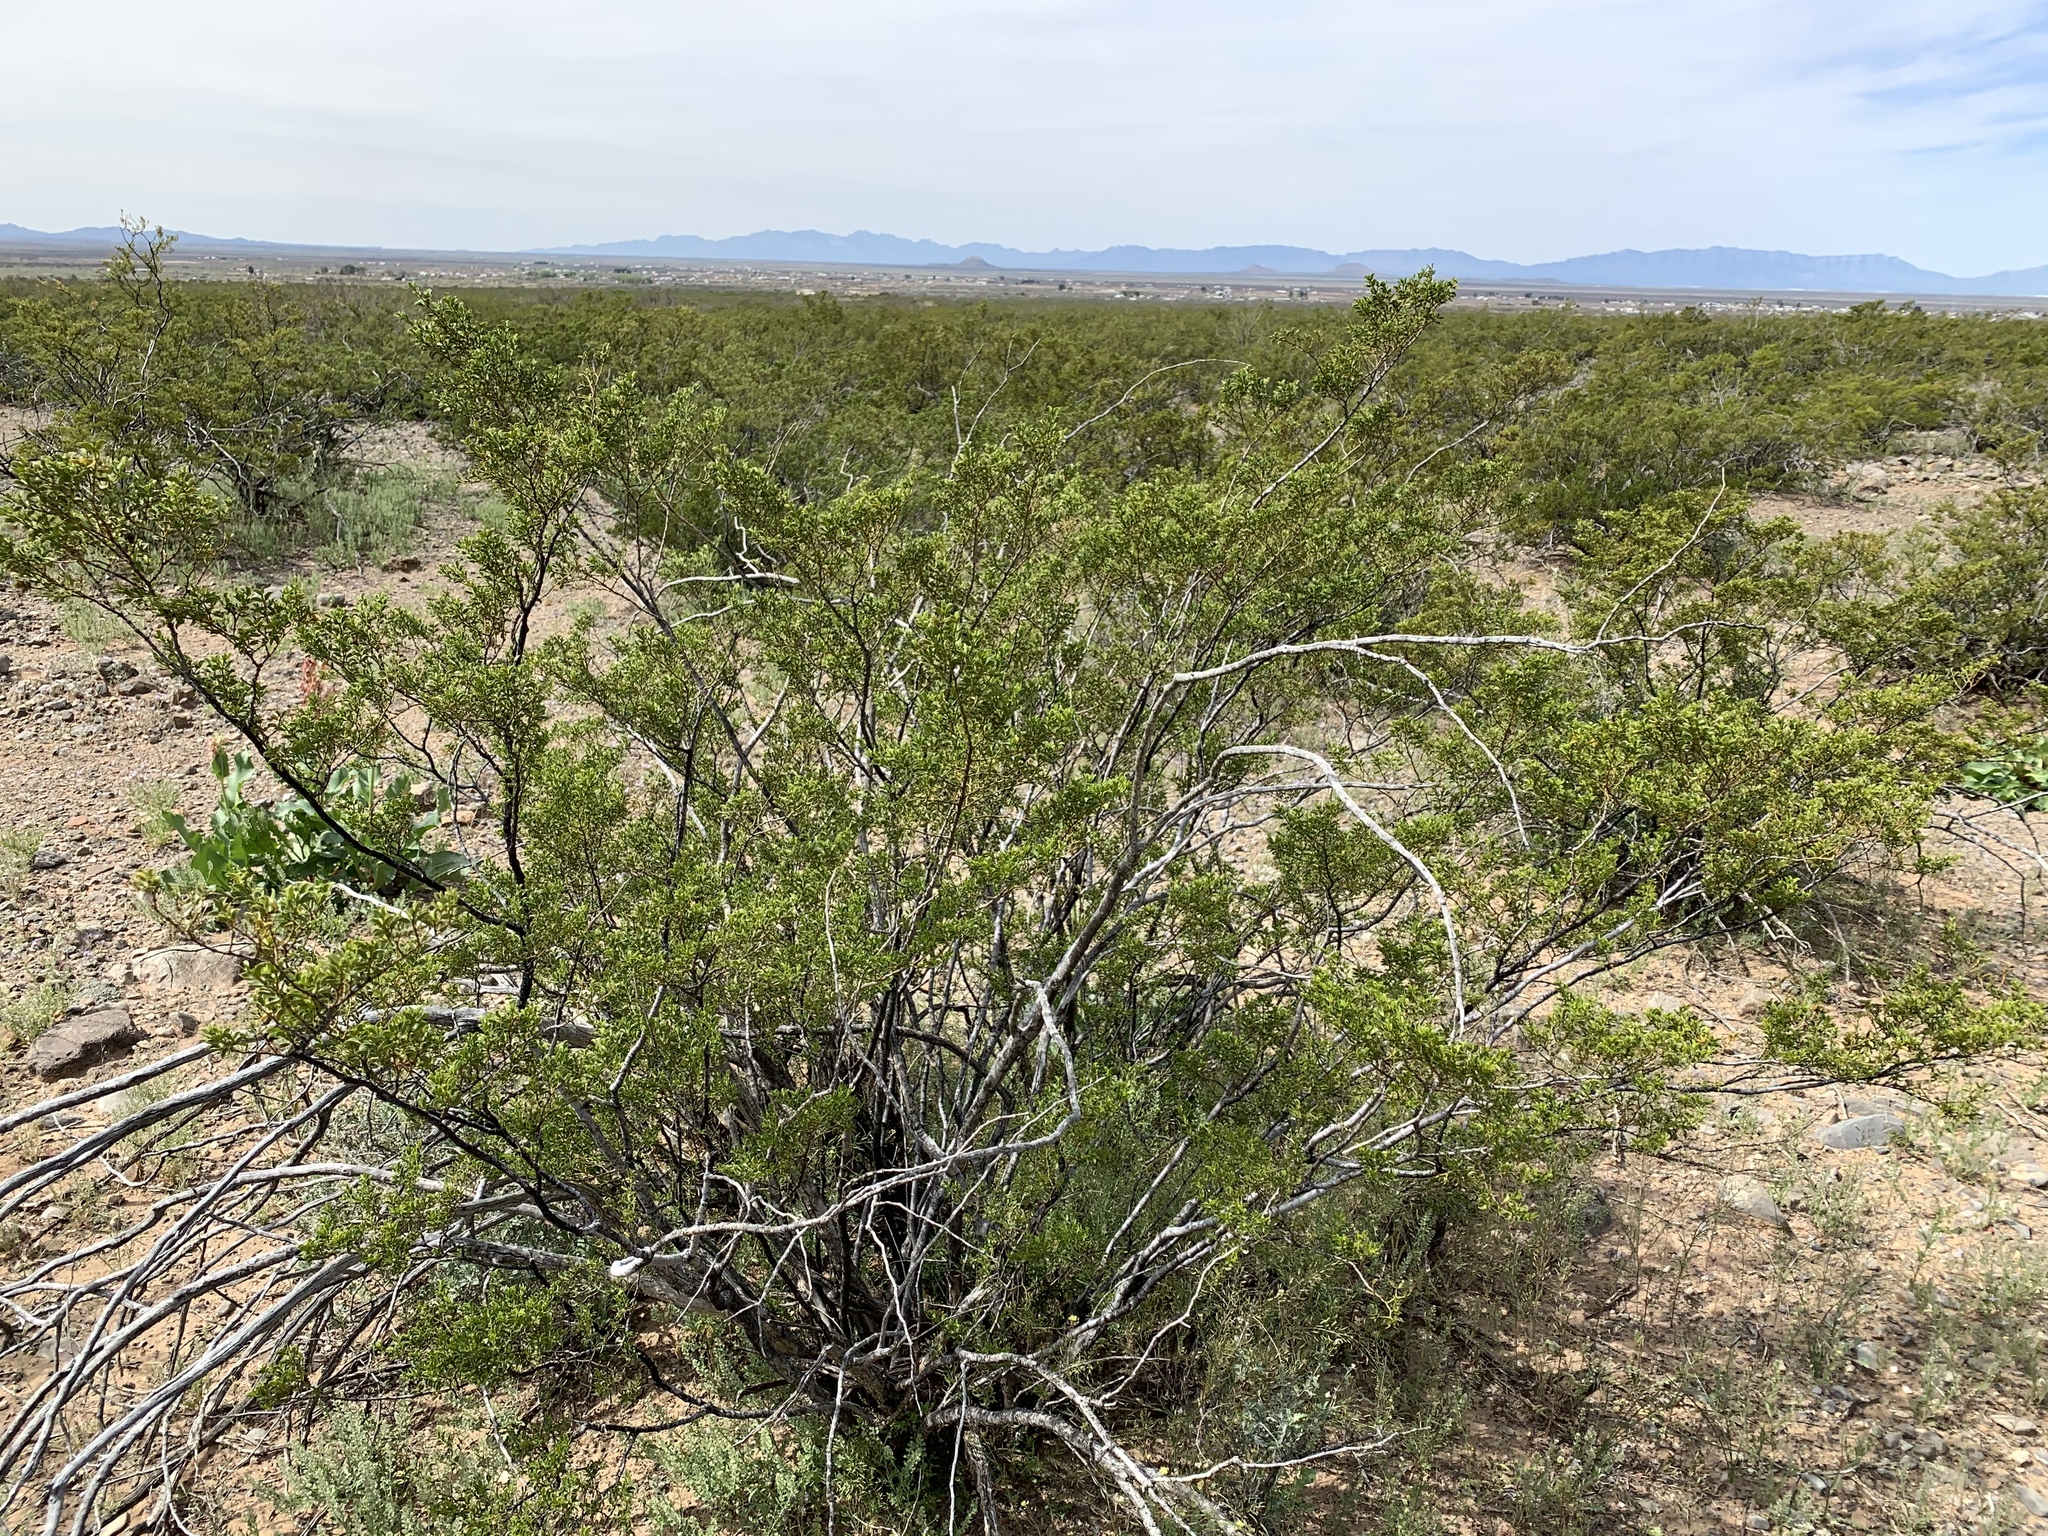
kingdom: Plantae
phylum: Tracheophyta
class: Magnoliopsida
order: Zygophyllales
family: Zygophyllaceae
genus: Larrea
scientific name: Larrea tridentata
